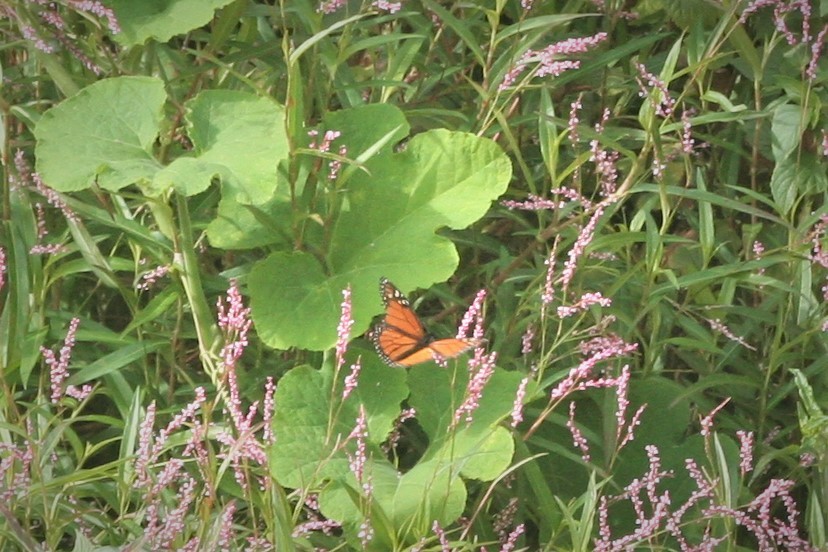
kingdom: Animalia
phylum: Arthropoda
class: Insecta
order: Lepidoptera
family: Nymphalidae
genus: Danaus
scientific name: Danaus plexippus
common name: Monarch
